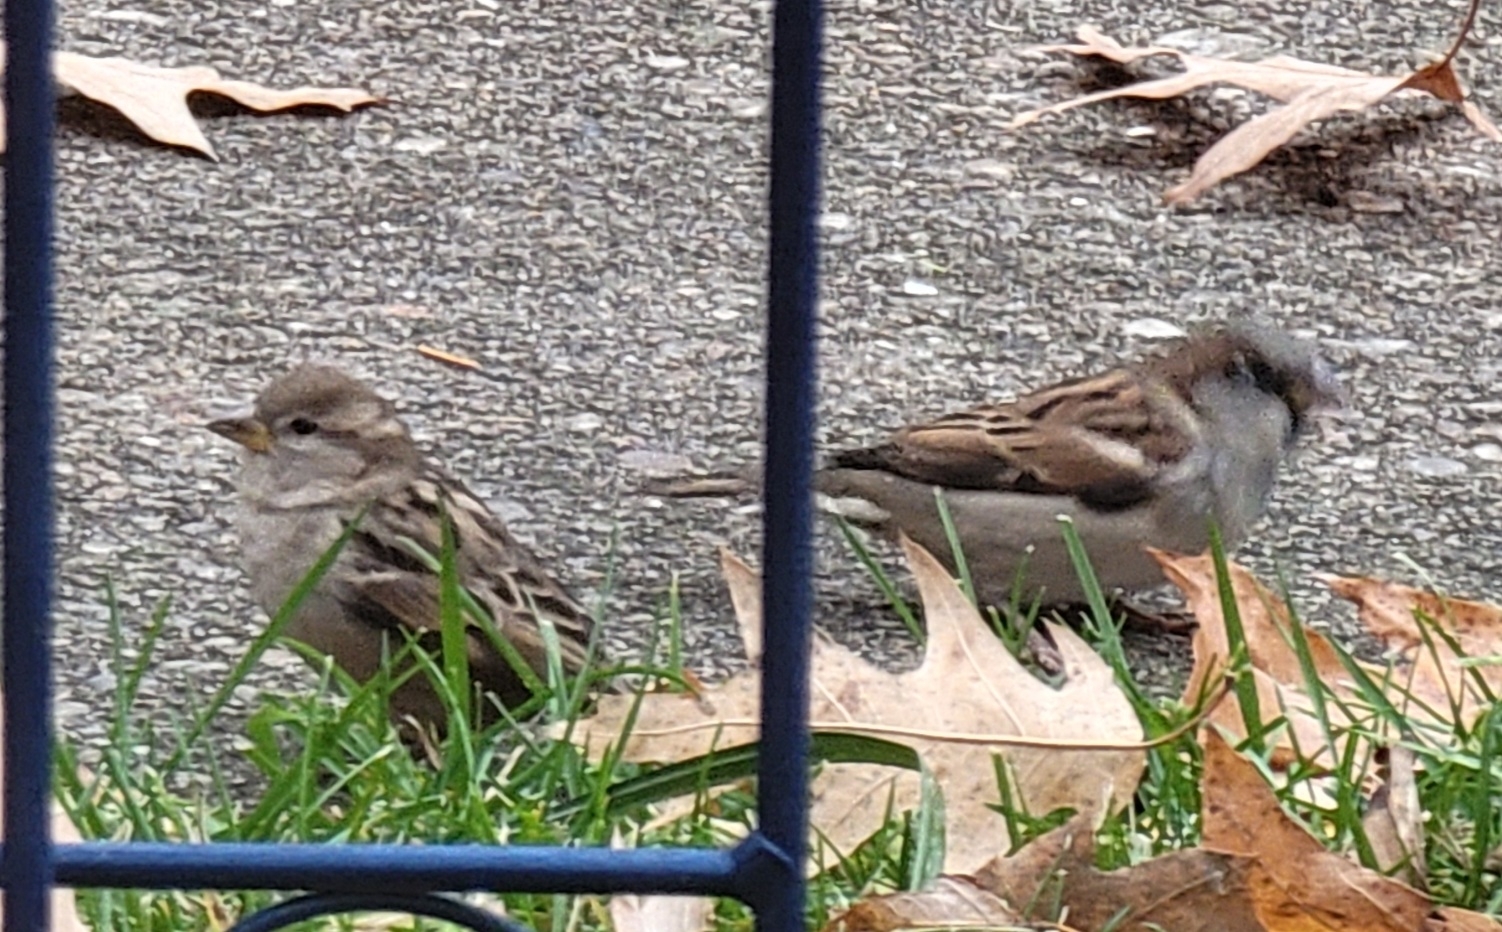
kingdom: Animalia
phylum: Chordata
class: Aves
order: Passeriformes
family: Passeridae
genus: Passer
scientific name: Passer domesticus
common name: House sparrow
